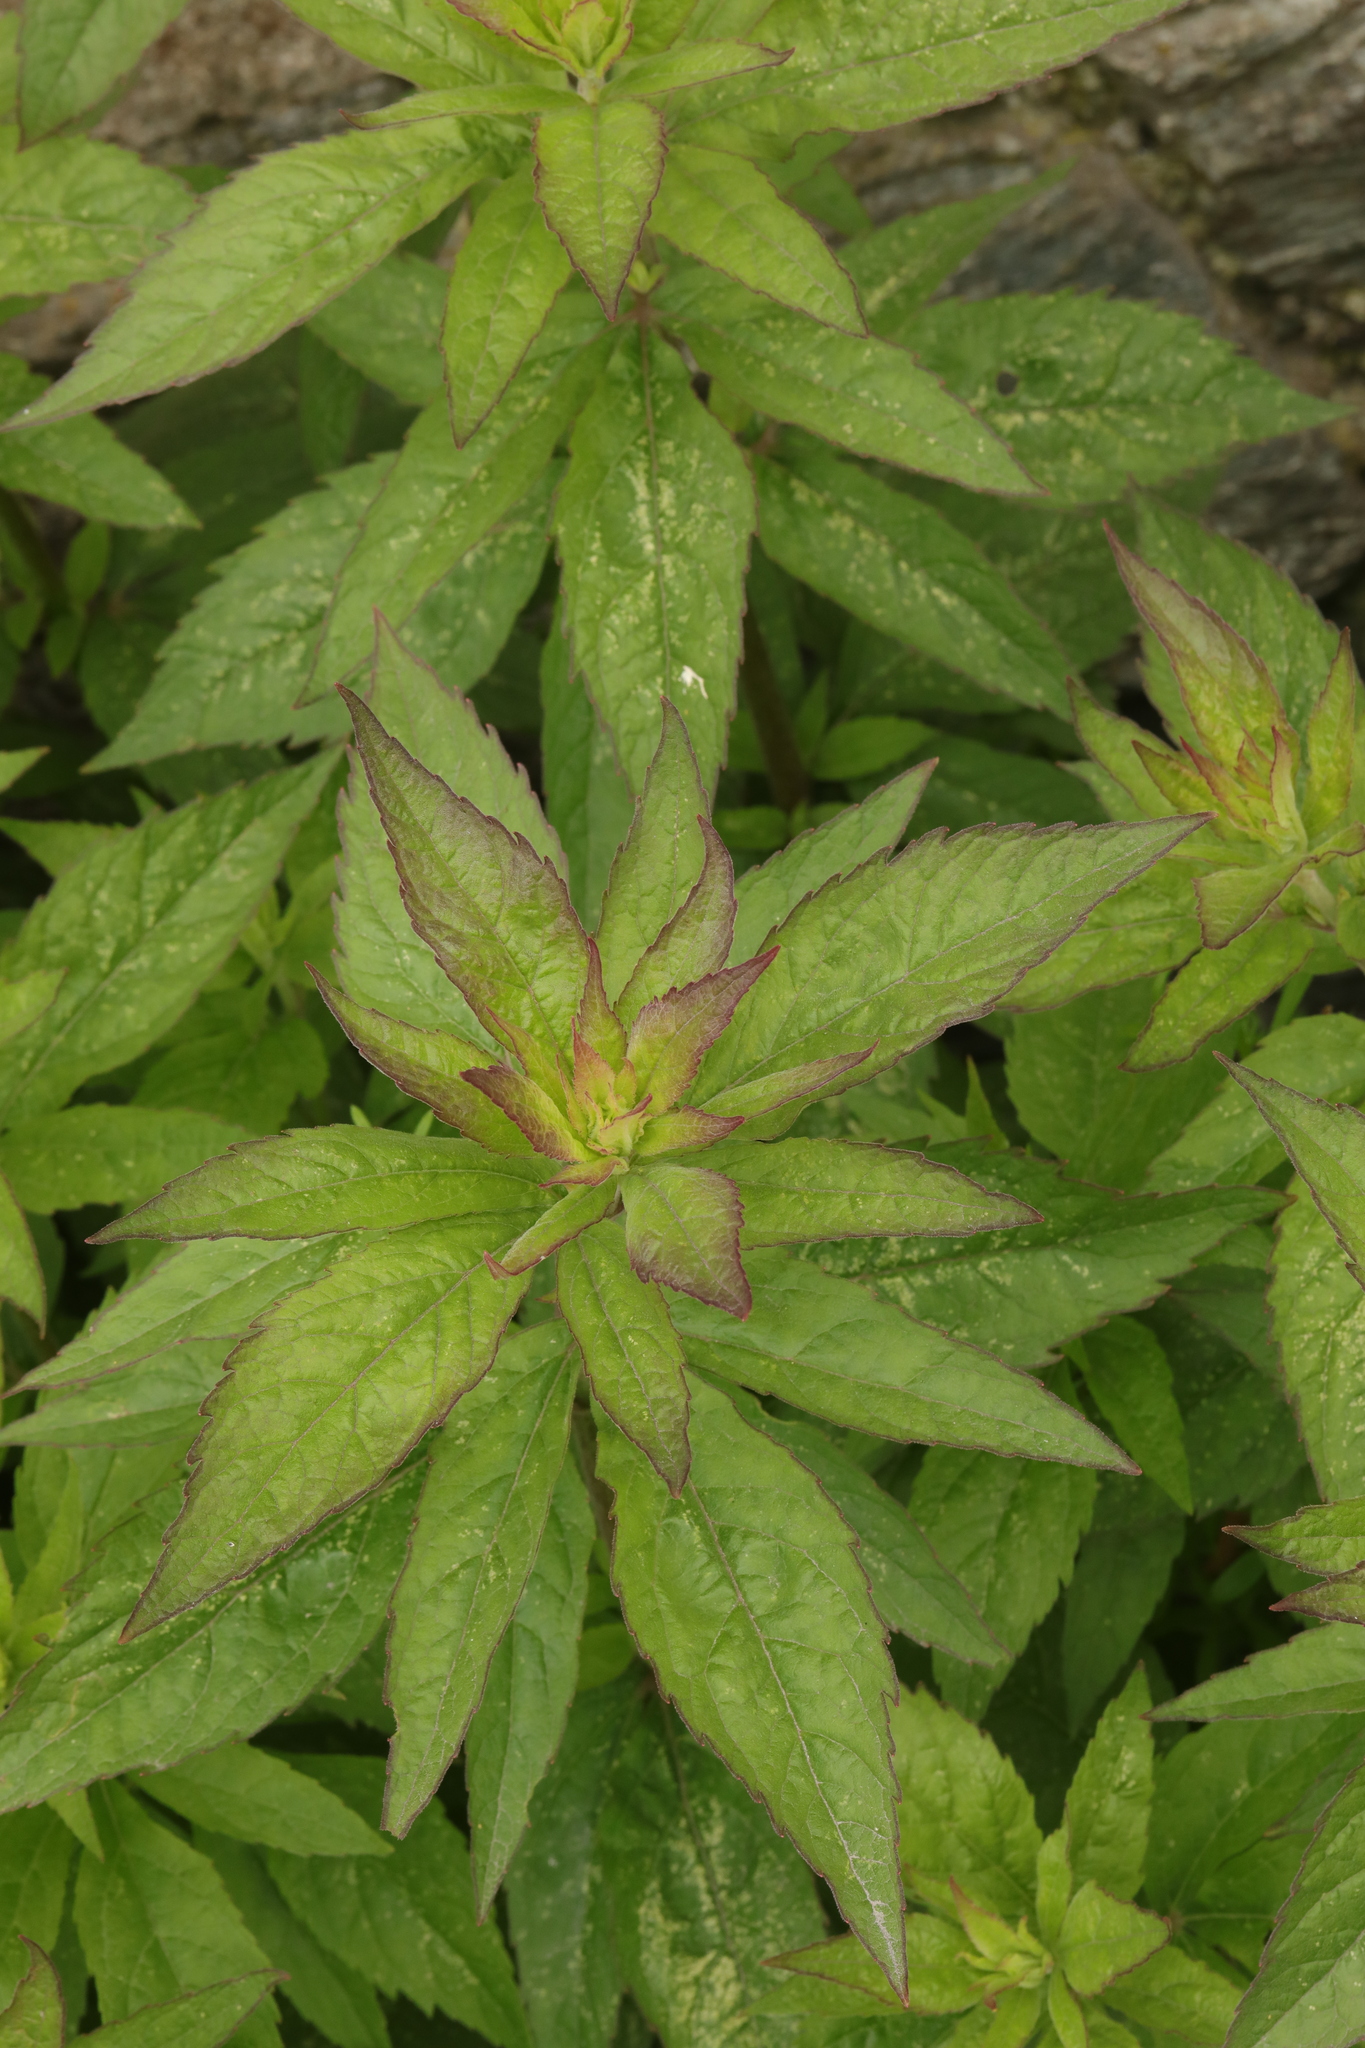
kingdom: Plantae
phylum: Tracheophyta
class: Magnoliopsida
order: Asterales
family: Asteraceae
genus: Eupatorium
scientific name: Eupatorium cannabinum
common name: Hemp-agrimony
